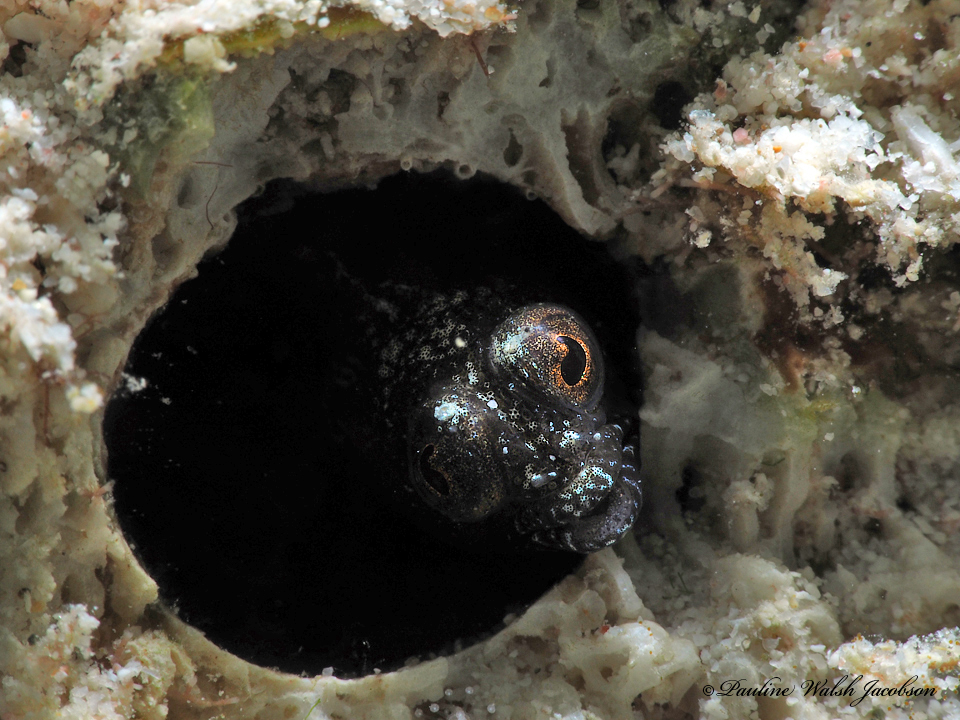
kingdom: Animalia
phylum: Chordata
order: Perciformes
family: Chaenopsidae
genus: Emblemaria
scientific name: Emblemaria pandionis
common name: Sailfin blenny
